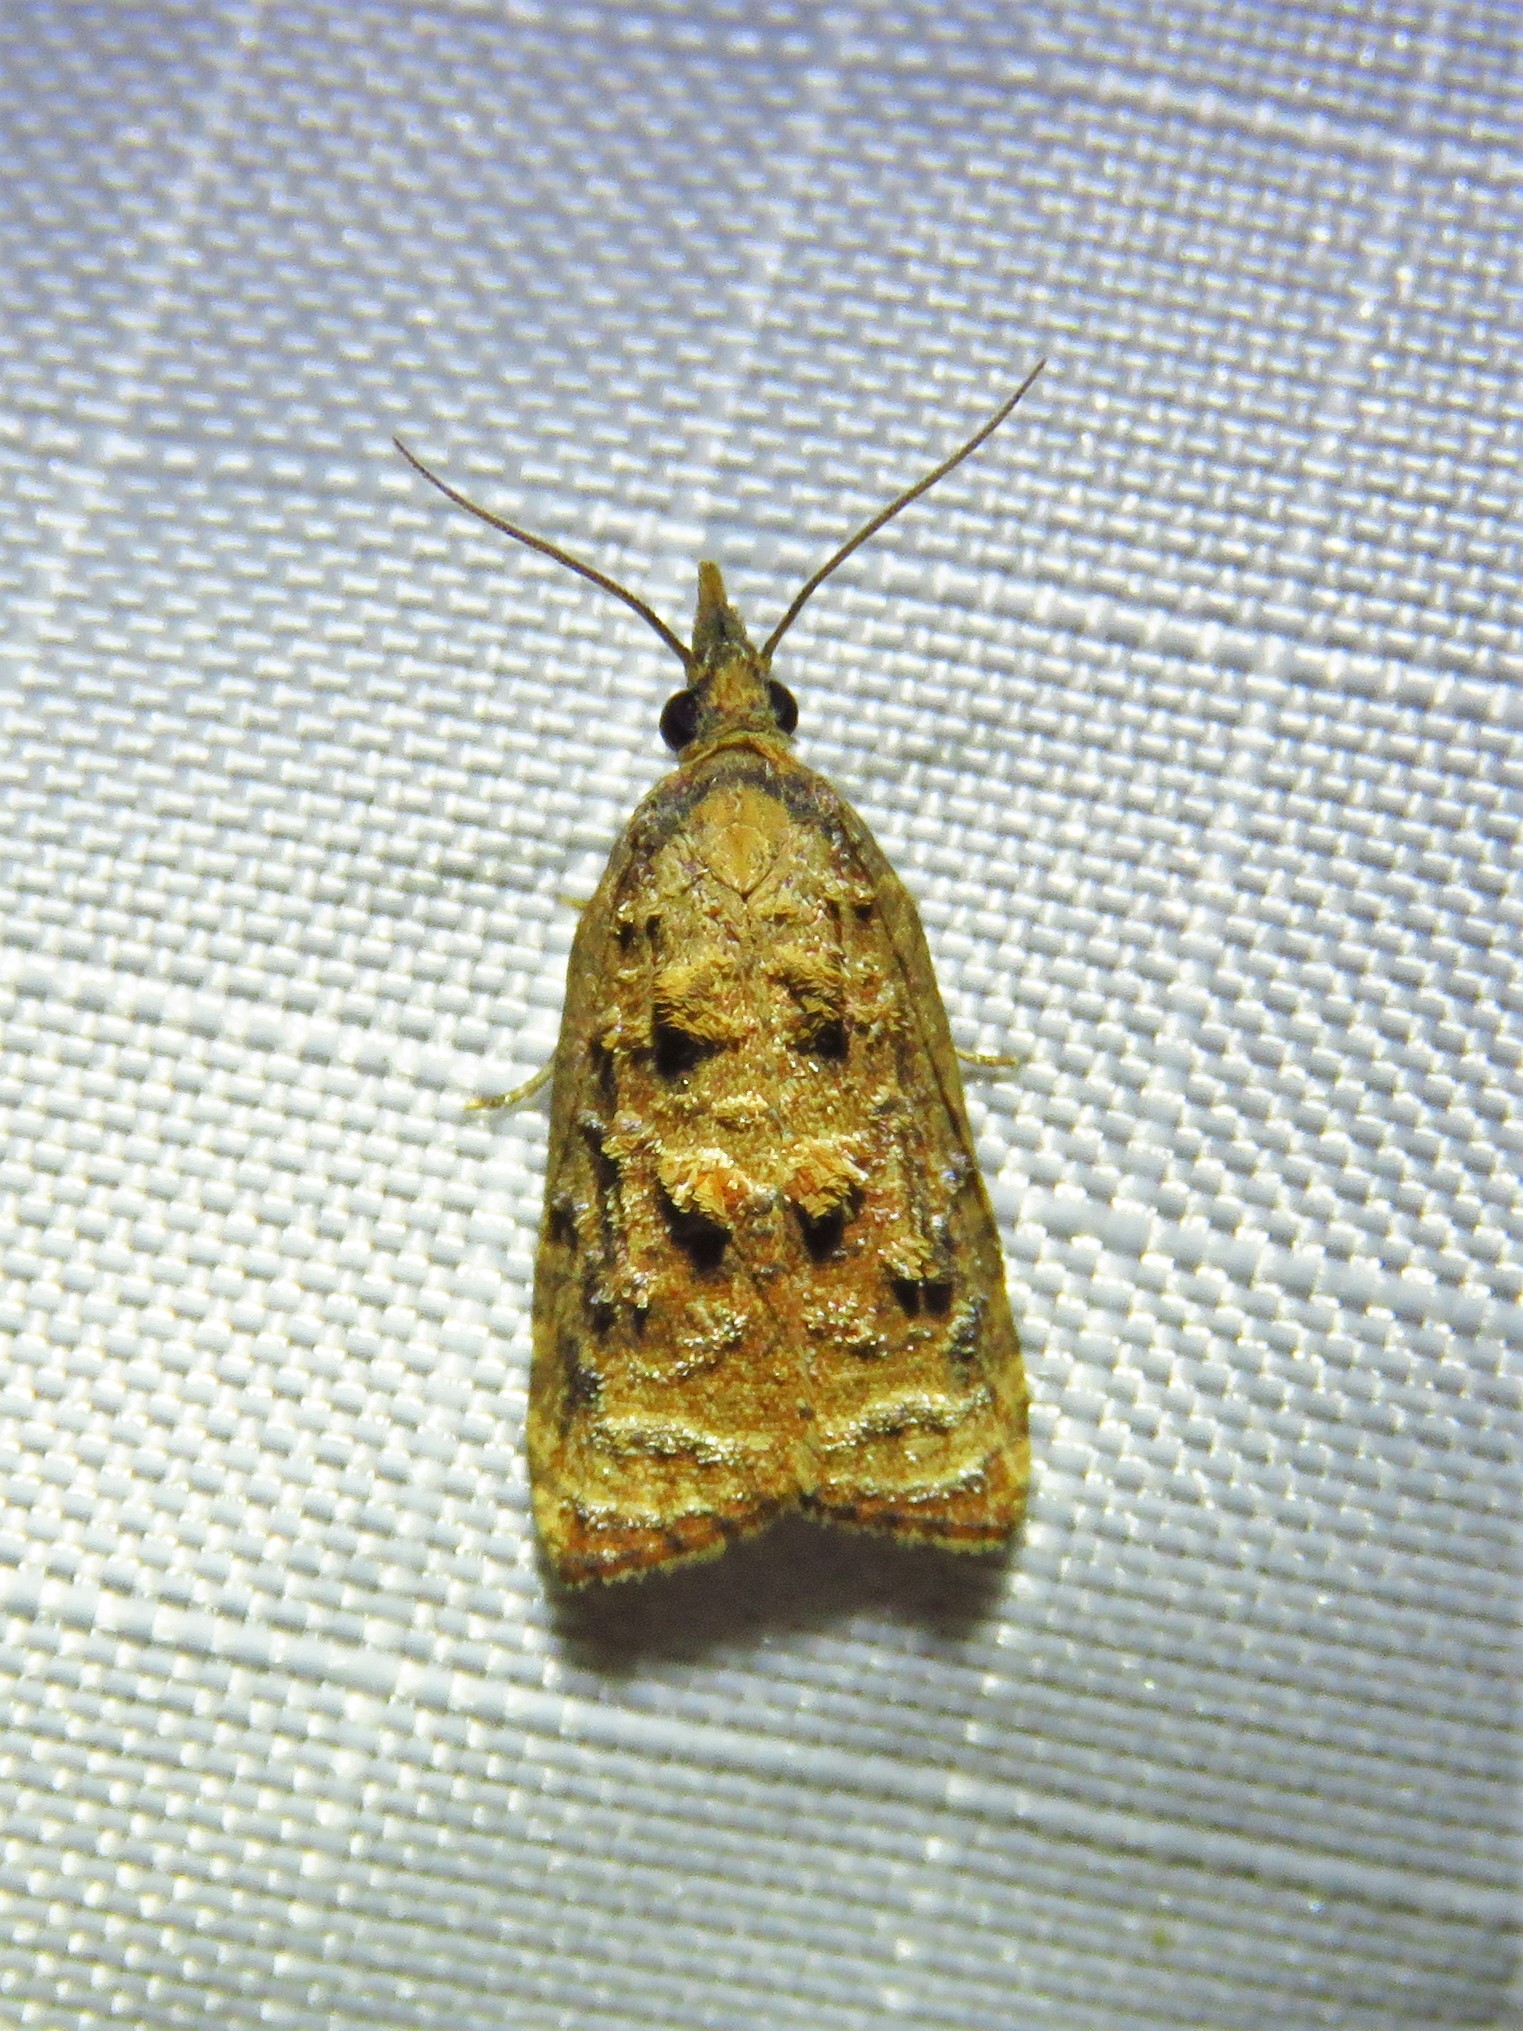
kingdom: Animalia
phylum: Arthropoda
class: Insecta
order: Lepidoptera
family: Tortricidae
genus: Platynota
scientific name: Platynota rostrana
